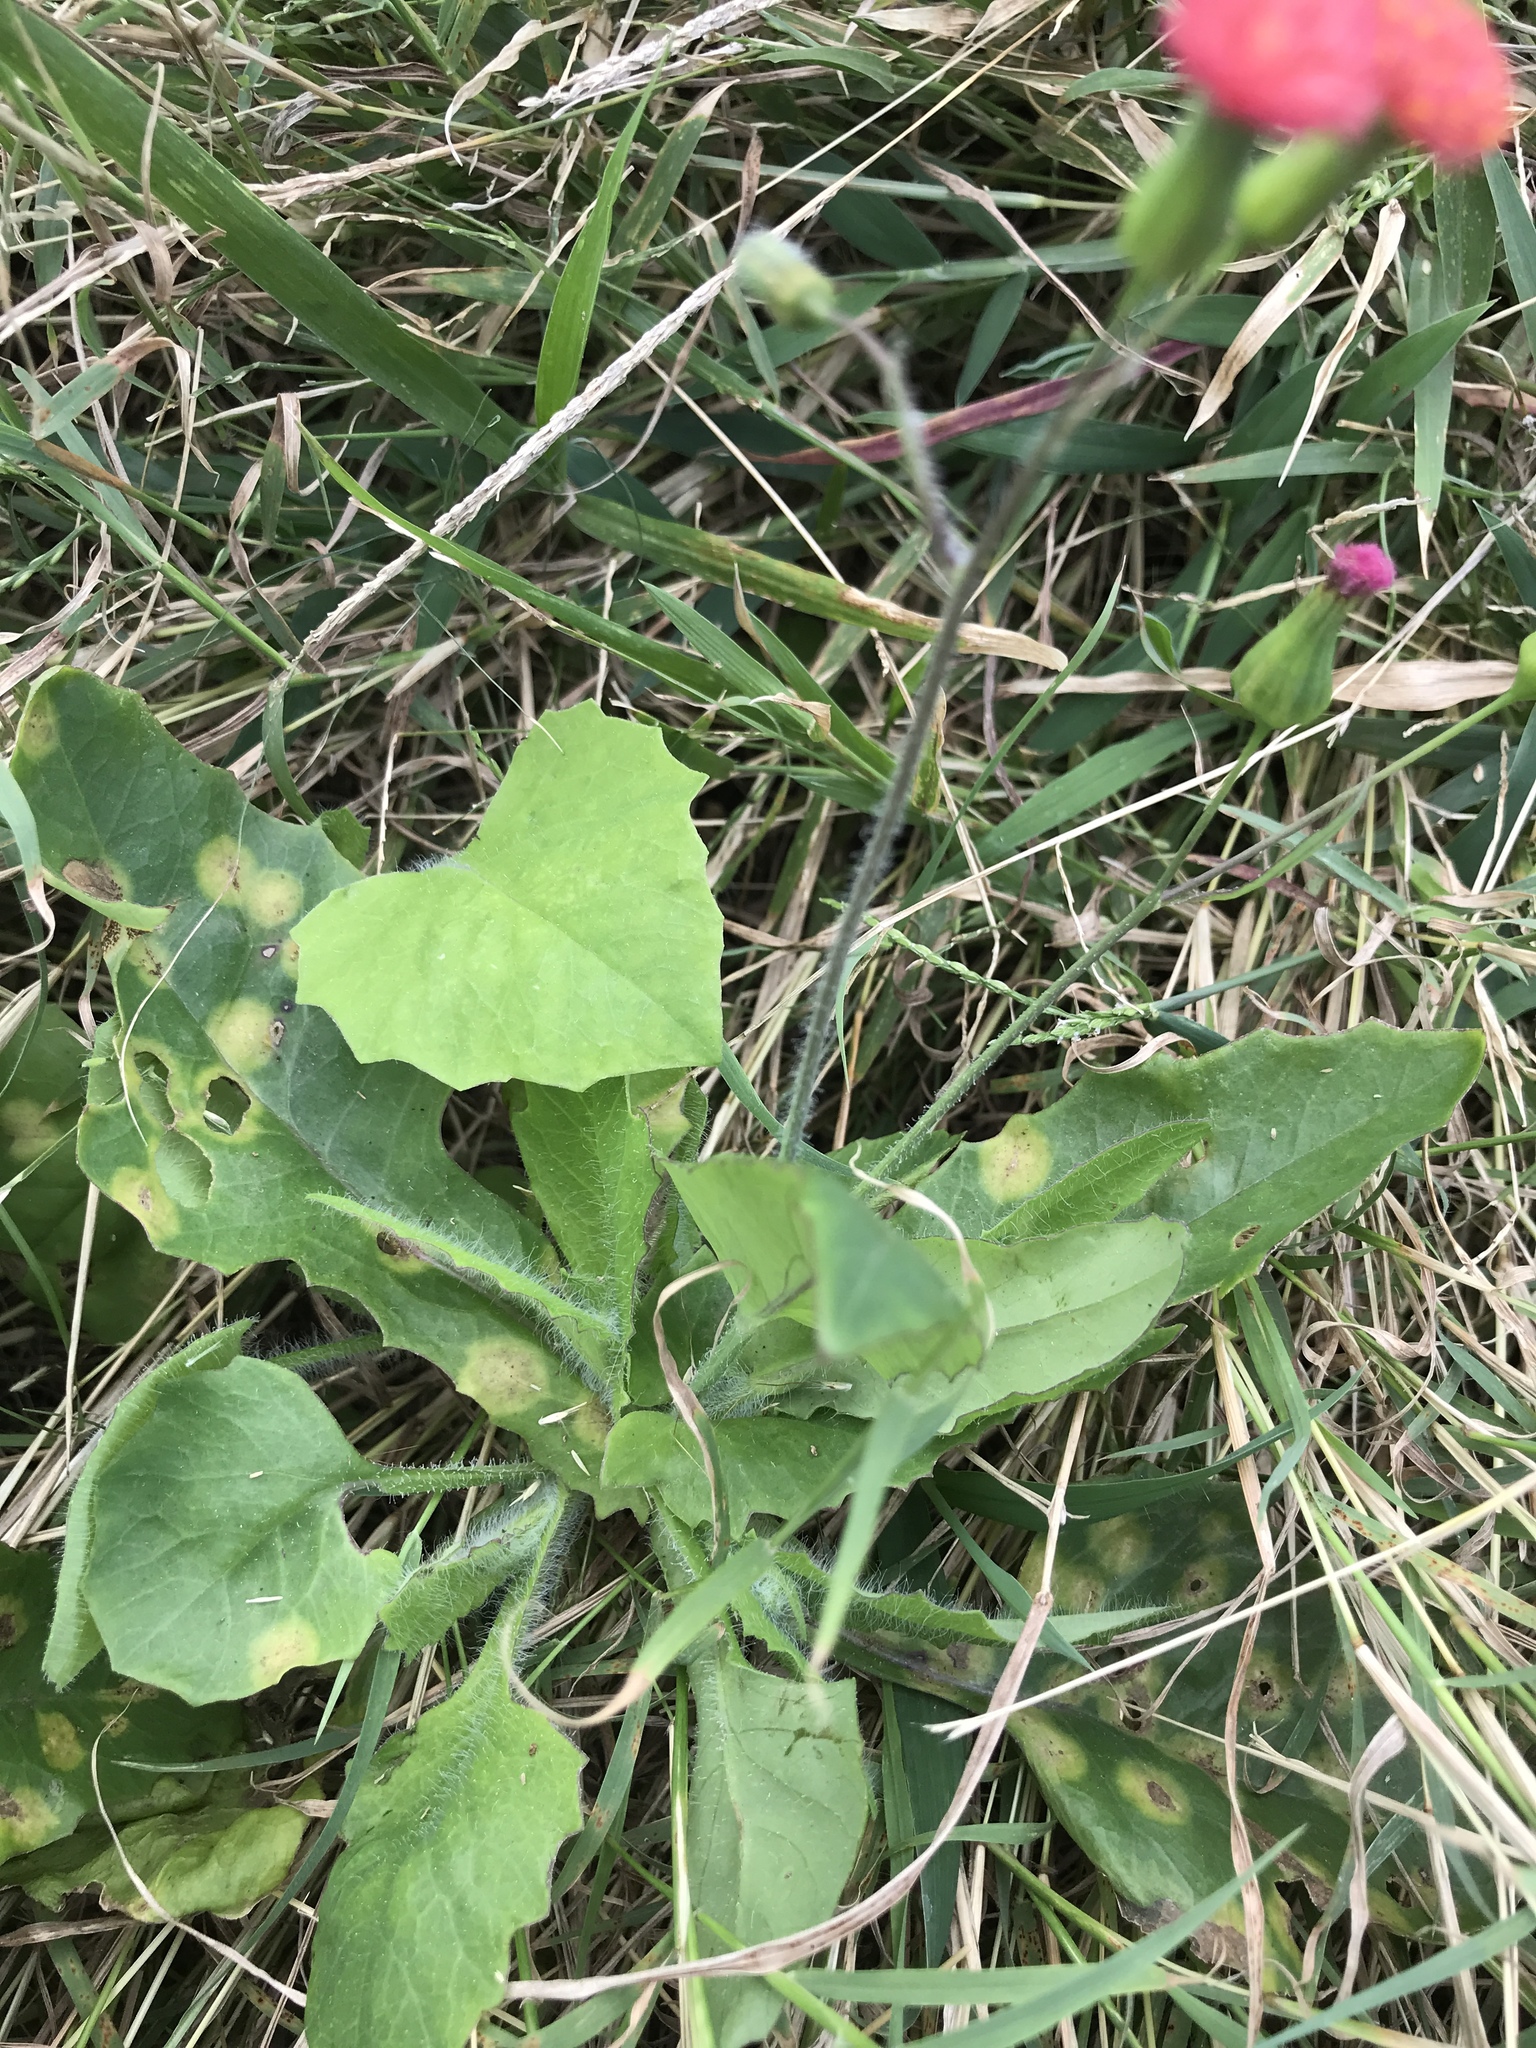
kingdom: Plantae
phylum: Tracheophyta
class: Magnoliopsida
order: Asterales
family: Asteraceae
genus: Emilia
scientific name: Emilia fosbergii
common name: Florida tasselflower
